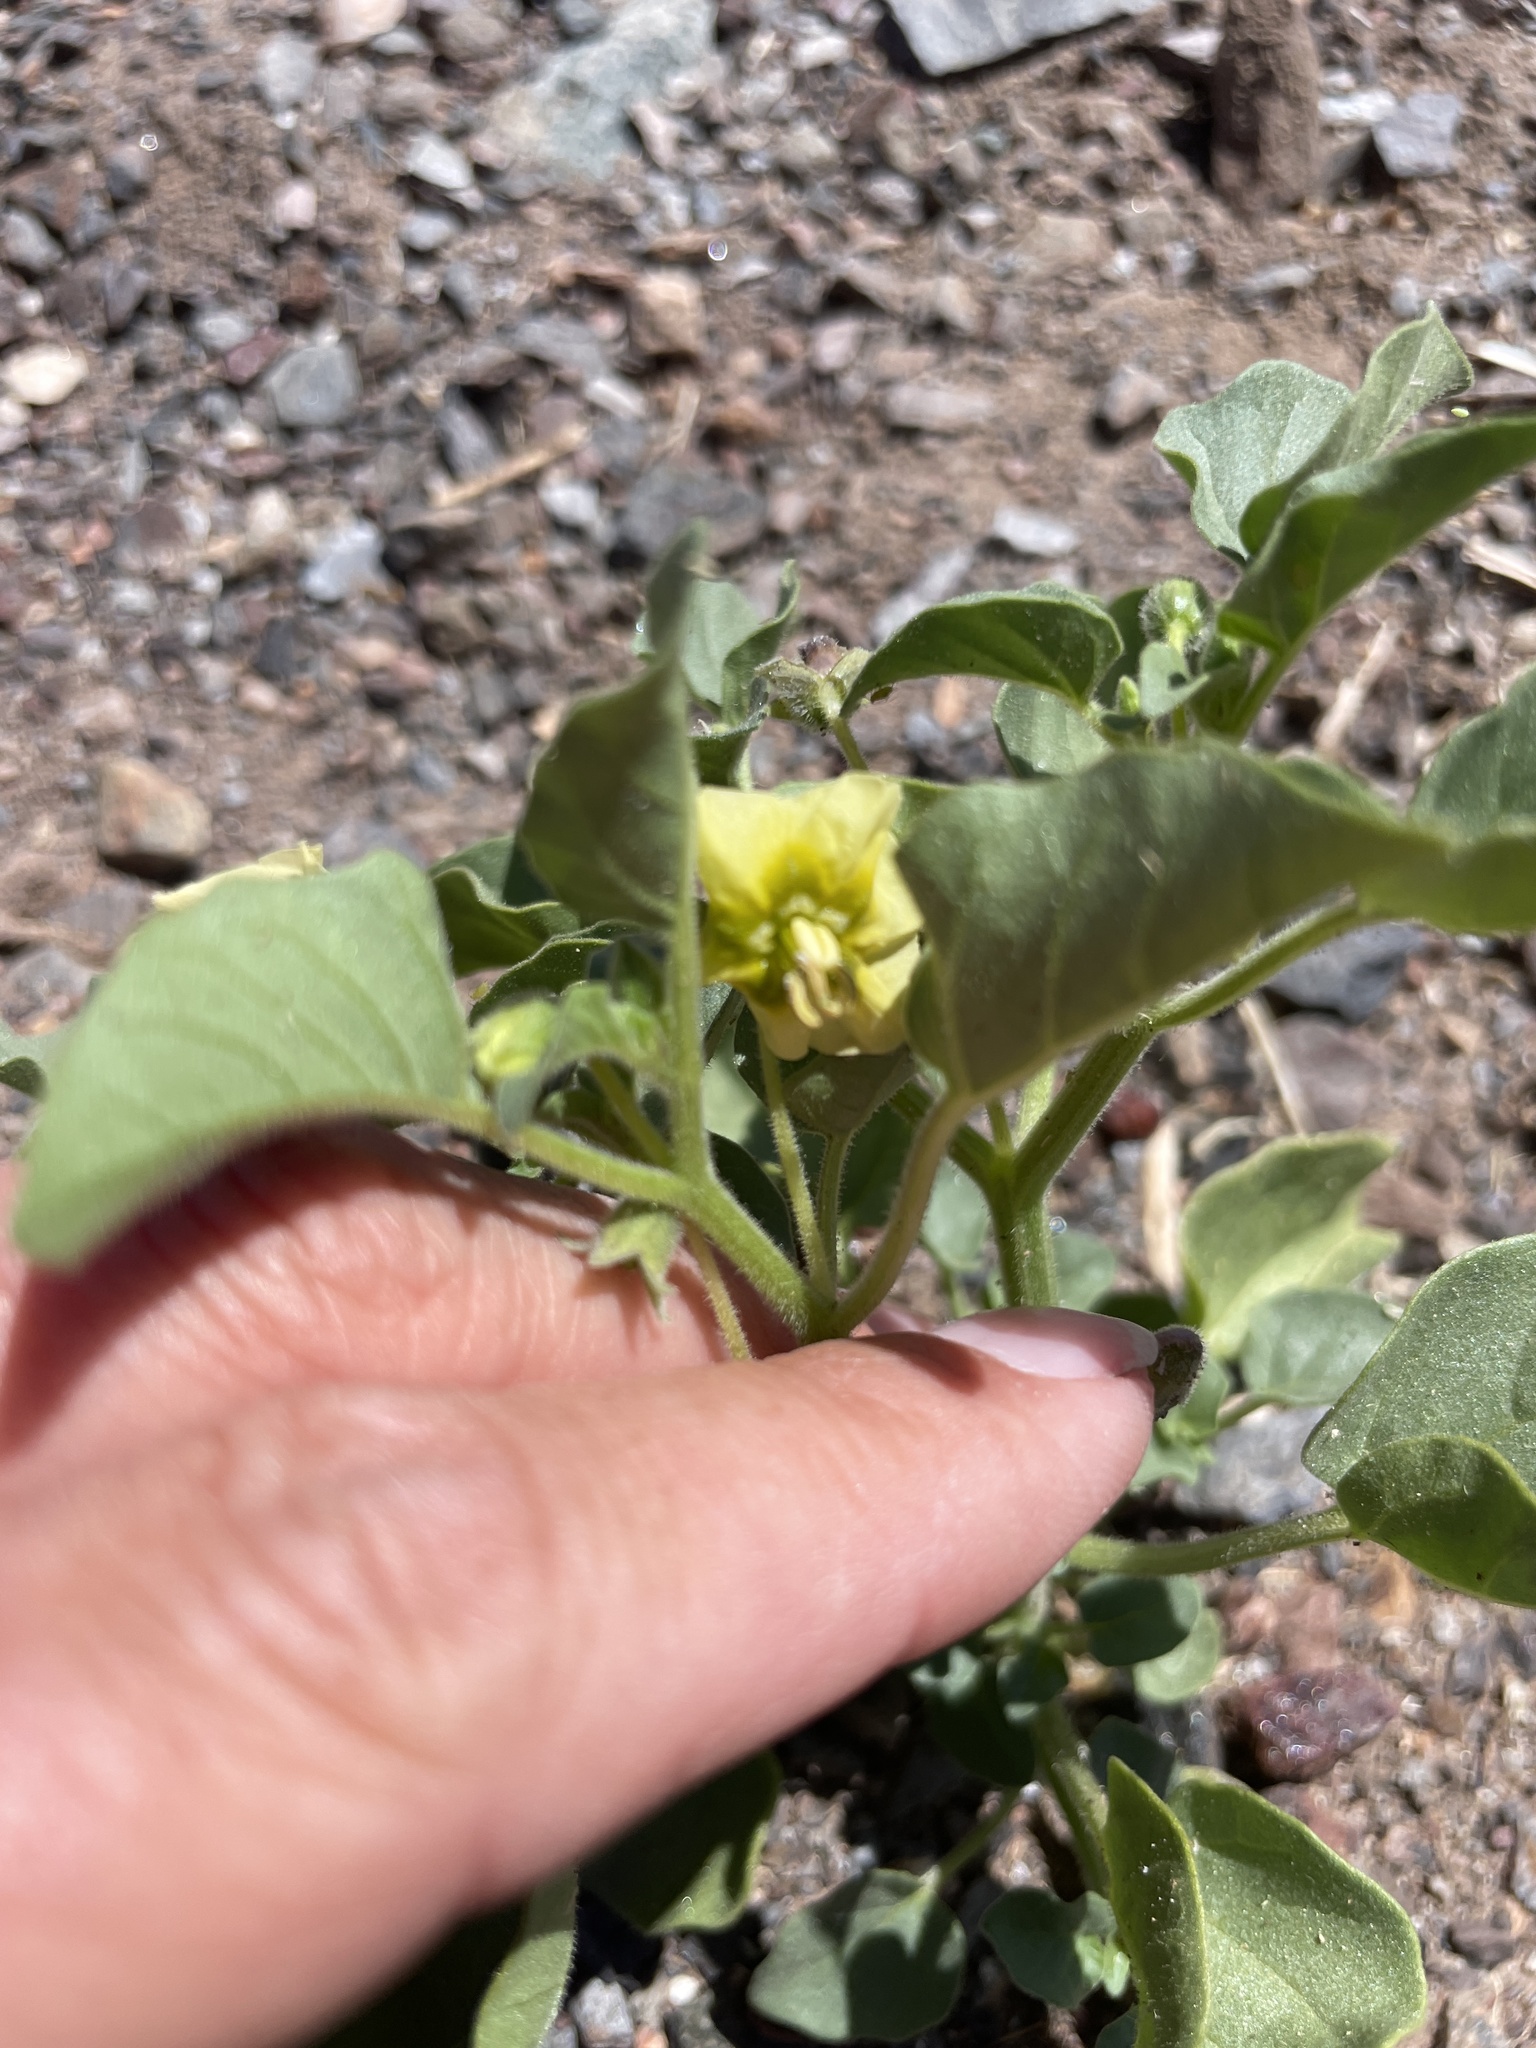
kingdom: Plantae
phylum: Tracheophyta
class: Magnoliopsida
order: Solanales
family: Solanaceae
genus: Physalis
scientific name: Physalis crassifolia
